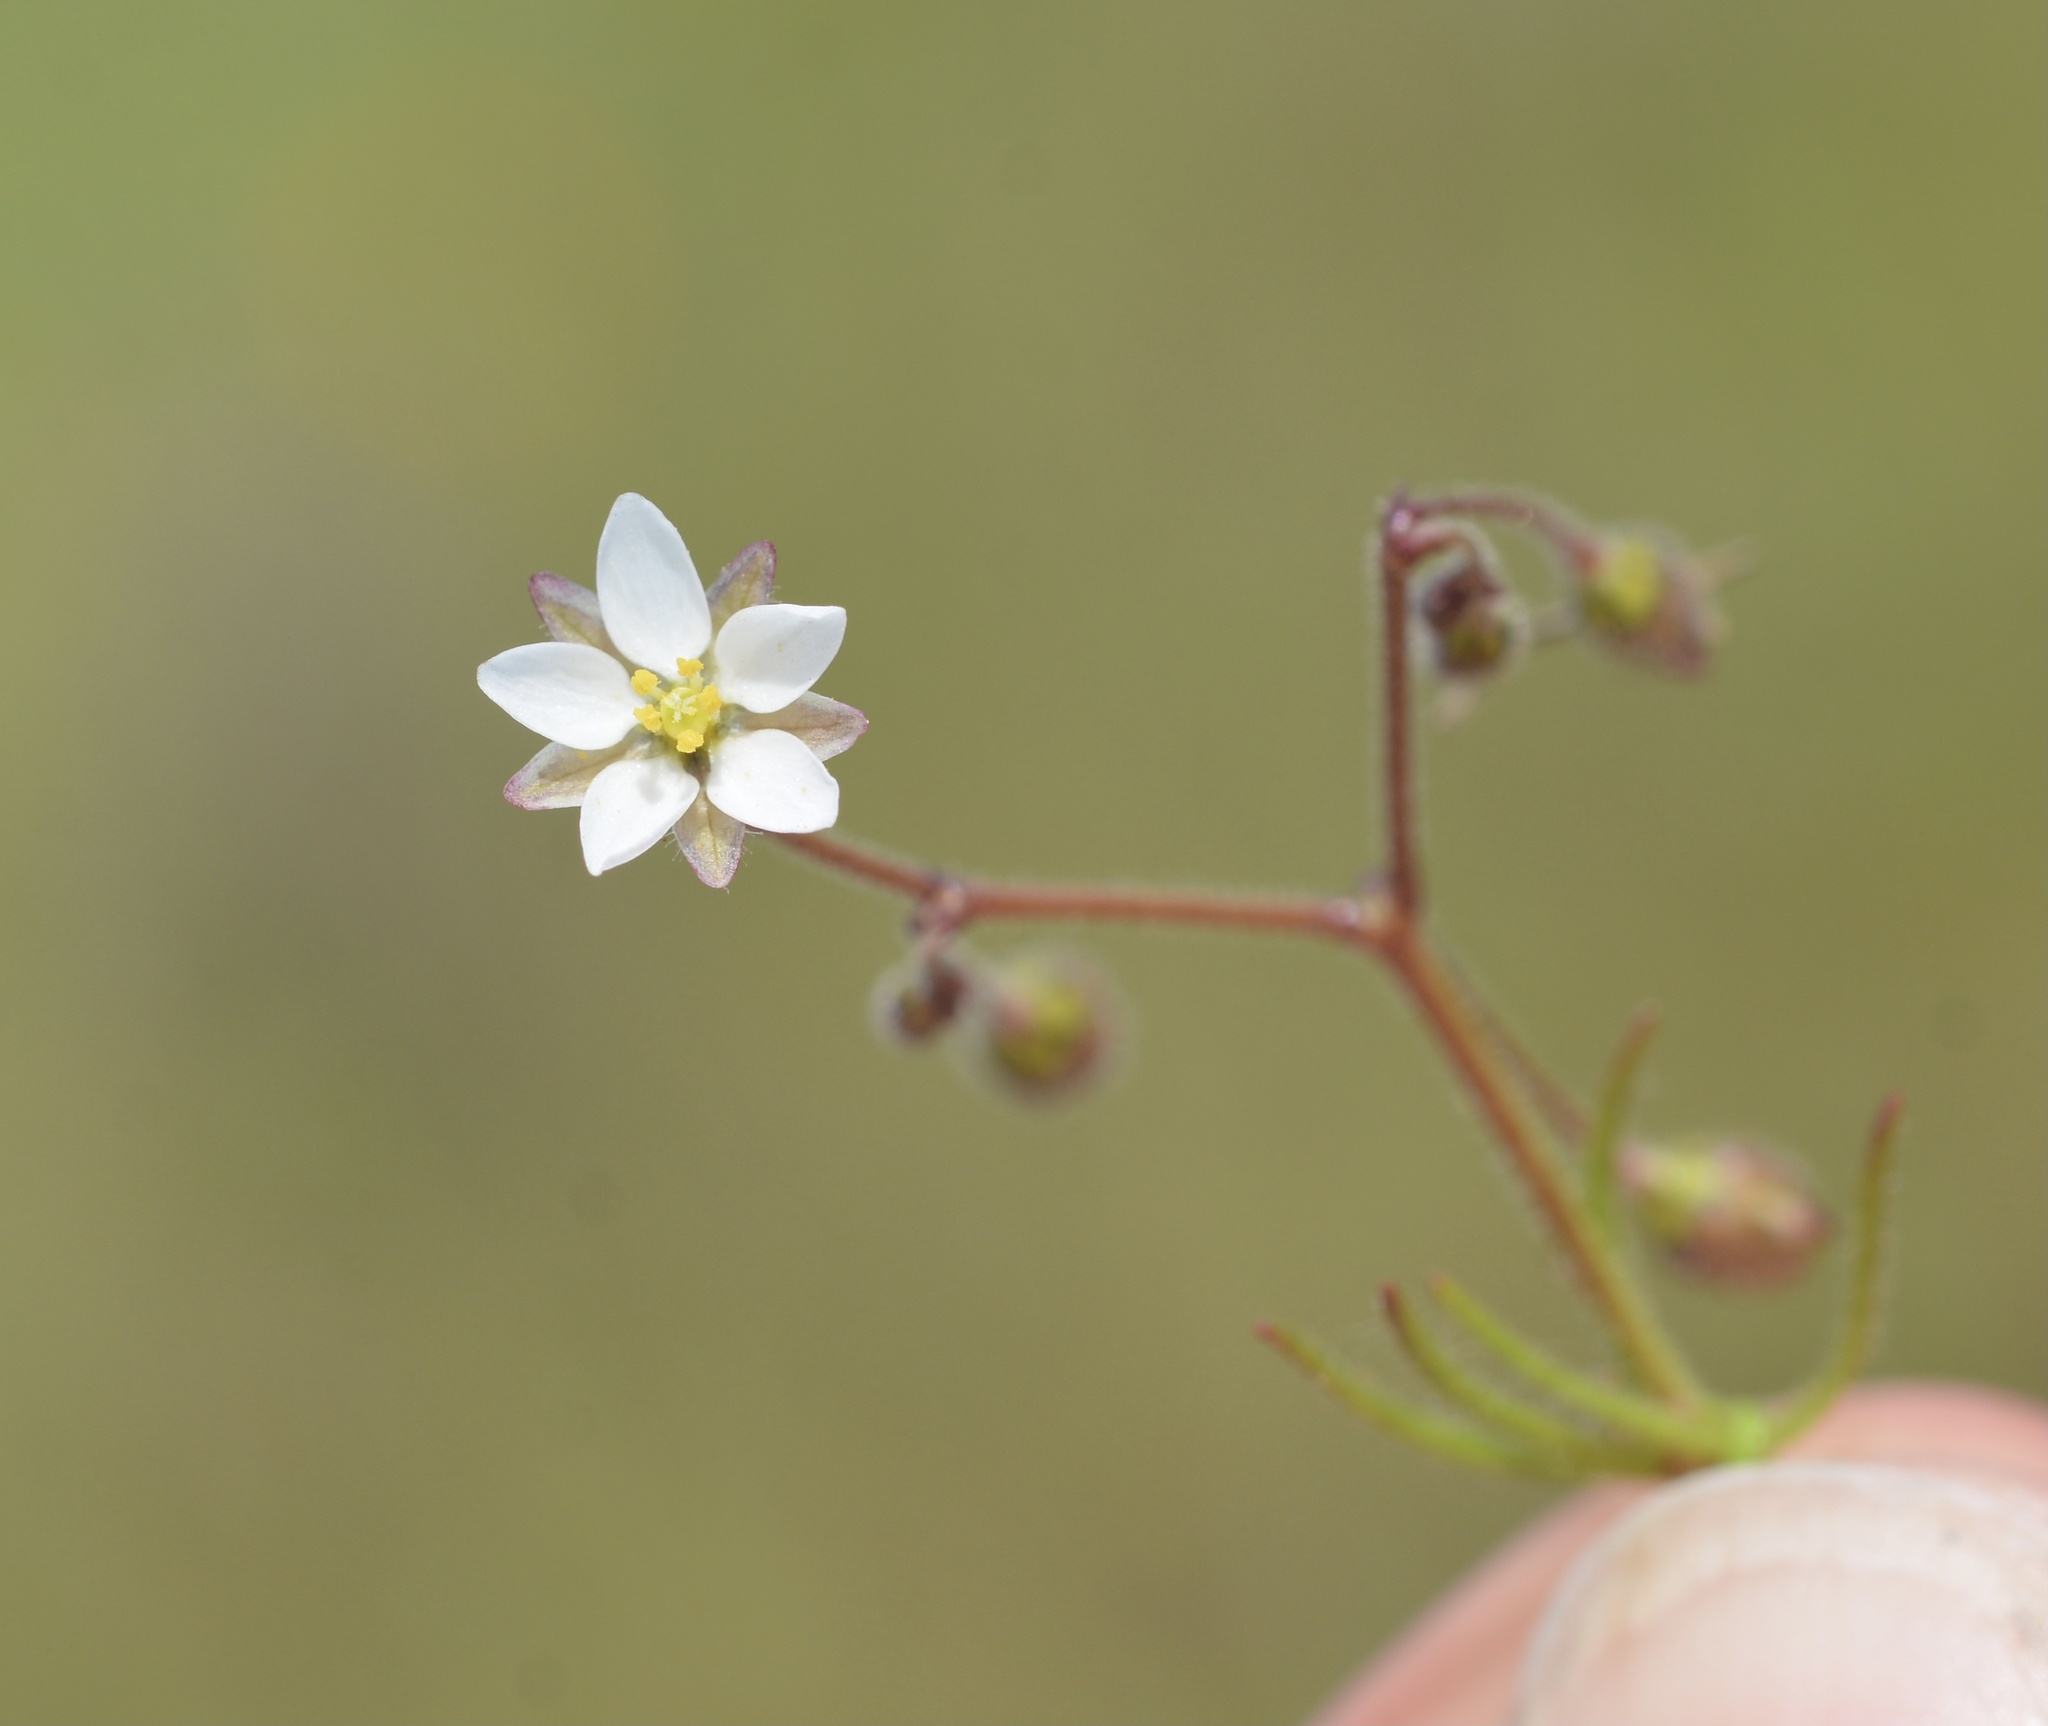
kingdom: Plantae
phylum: Tracheophyta
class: Magnoliopsida
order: Caryophyllales
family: Caryophyllaceae
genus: Spergula
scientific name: Spergula arvensis
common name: Corn spurrey
